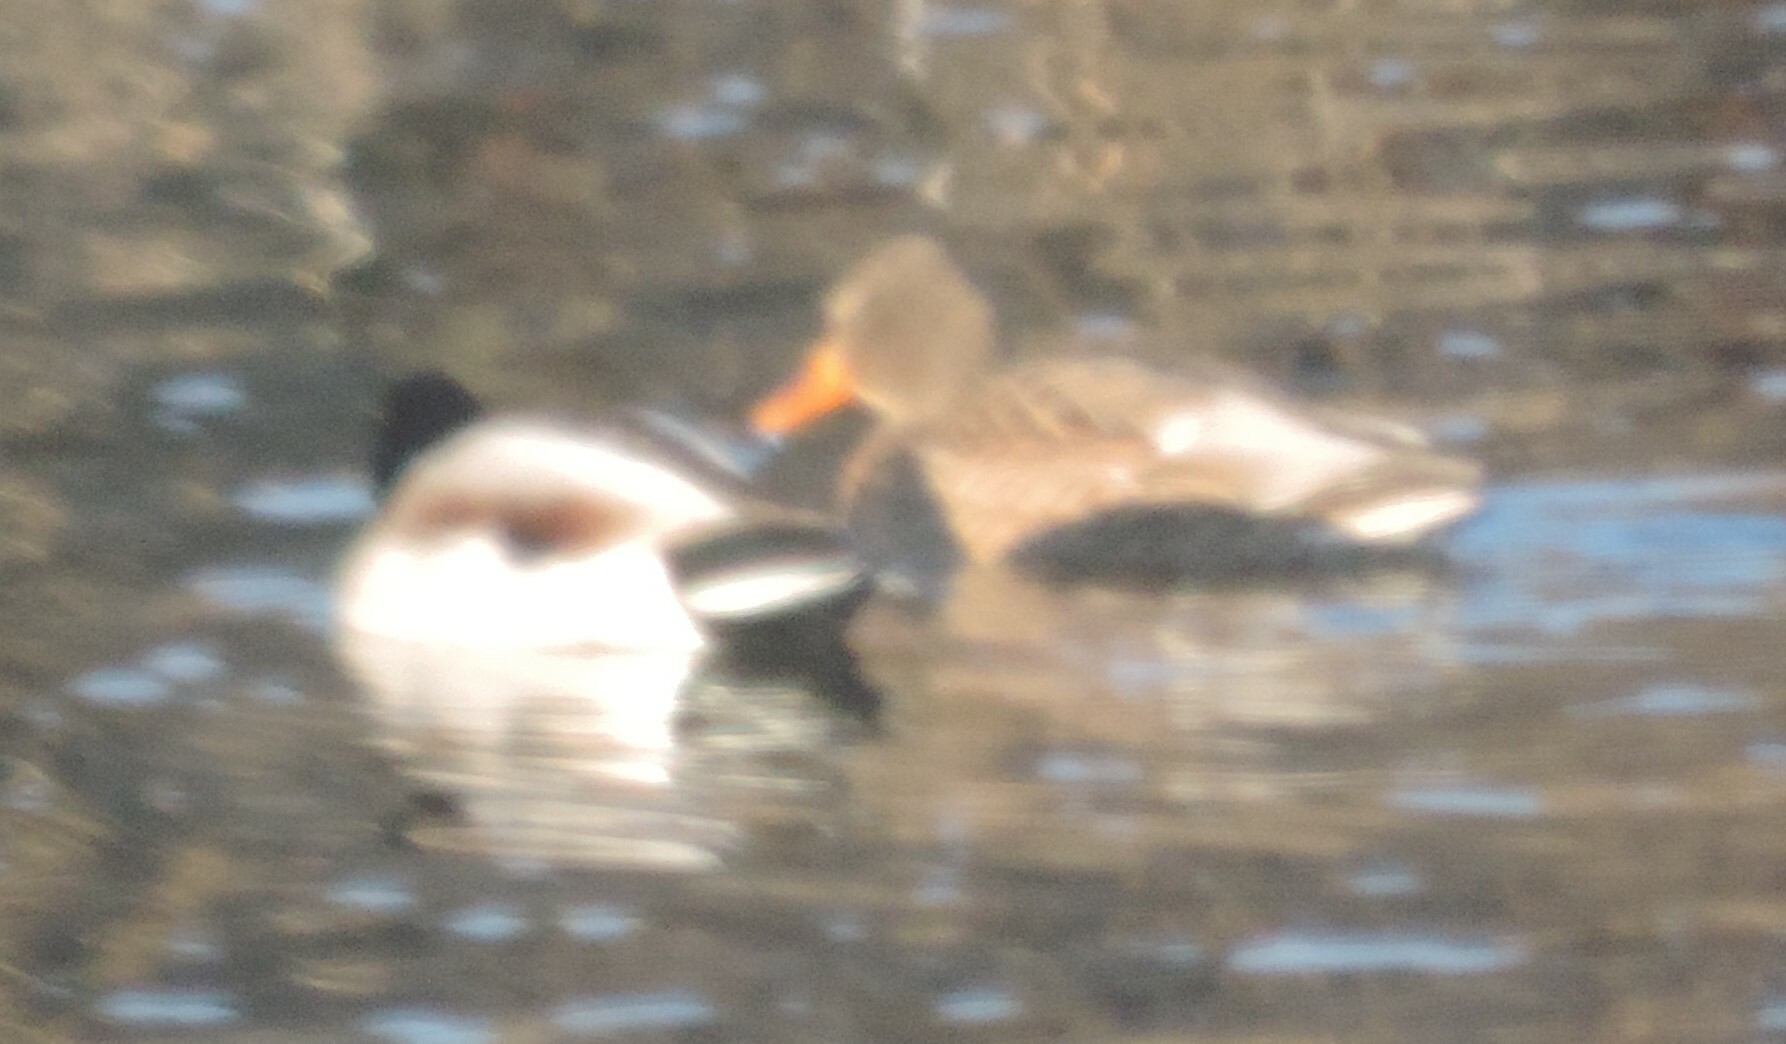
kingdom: Animalia
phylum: Chordata
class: Aves
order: Anseriformes
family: Anatidae
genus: Anas
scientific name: Anas platyrhynchos
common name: Mallard
